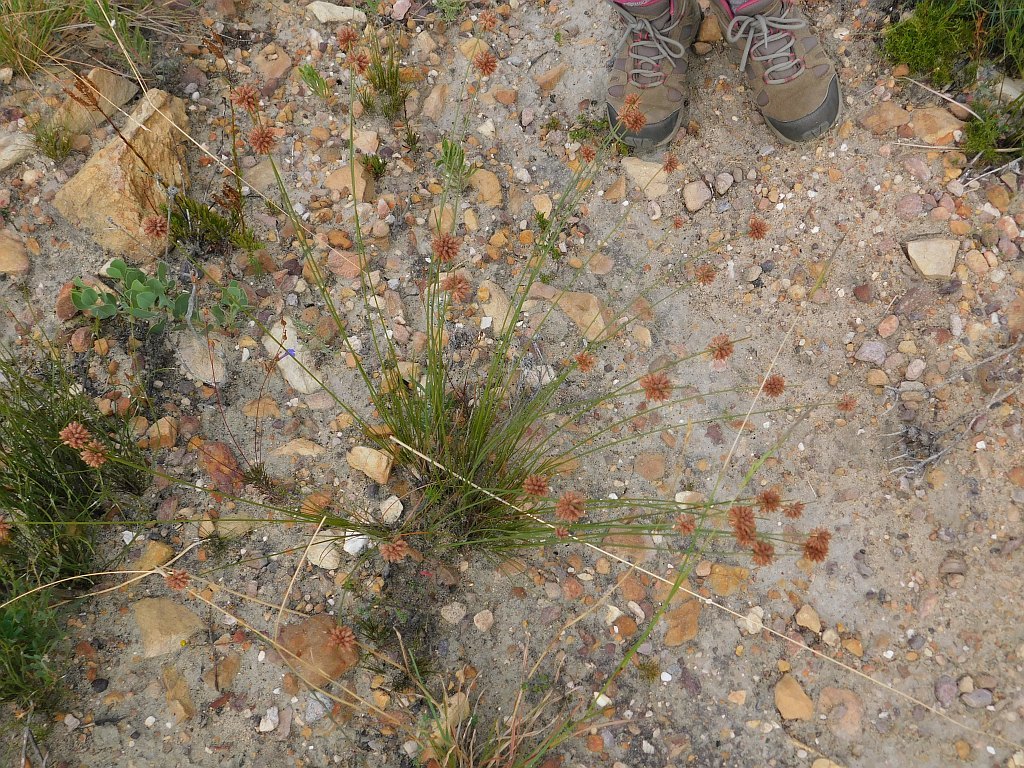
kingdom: Plantae
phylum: Tracheophyta
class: Liliopsida
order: Poales
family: Cyperaceae
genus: Ficinia
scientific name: Ficinia ecklonea
